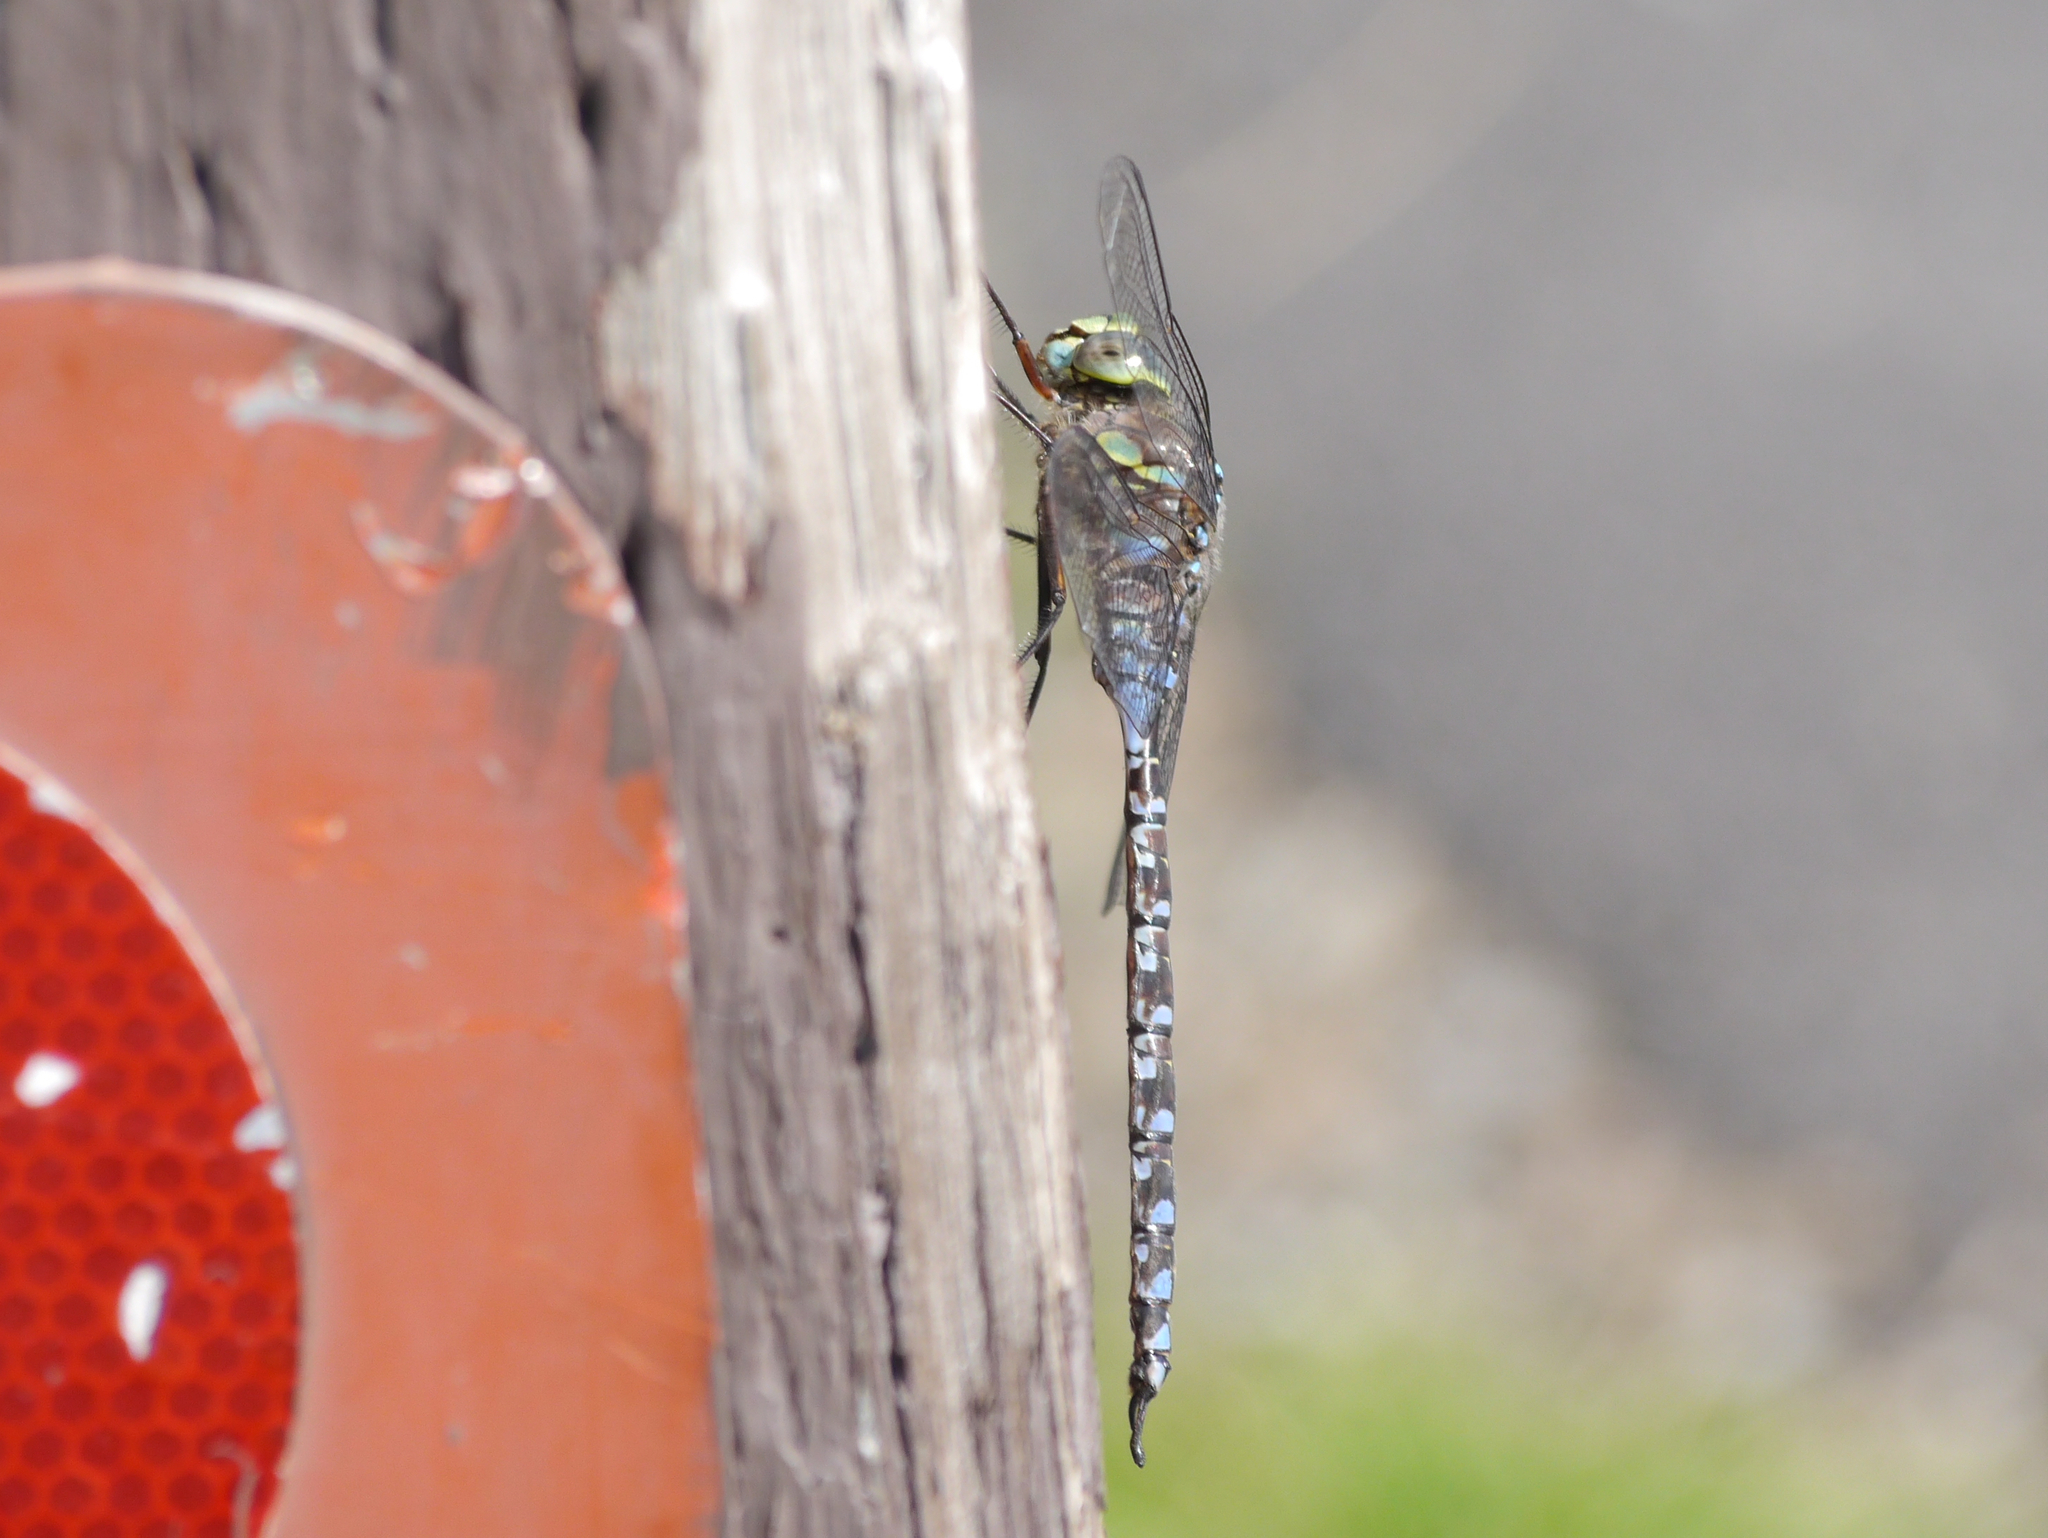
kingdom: Animalia
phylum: Arthropoda
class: Insecta
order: Odonata
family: Aeshnidae
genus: Aeshna
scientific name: Aeshna eremita
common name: Lake darner
